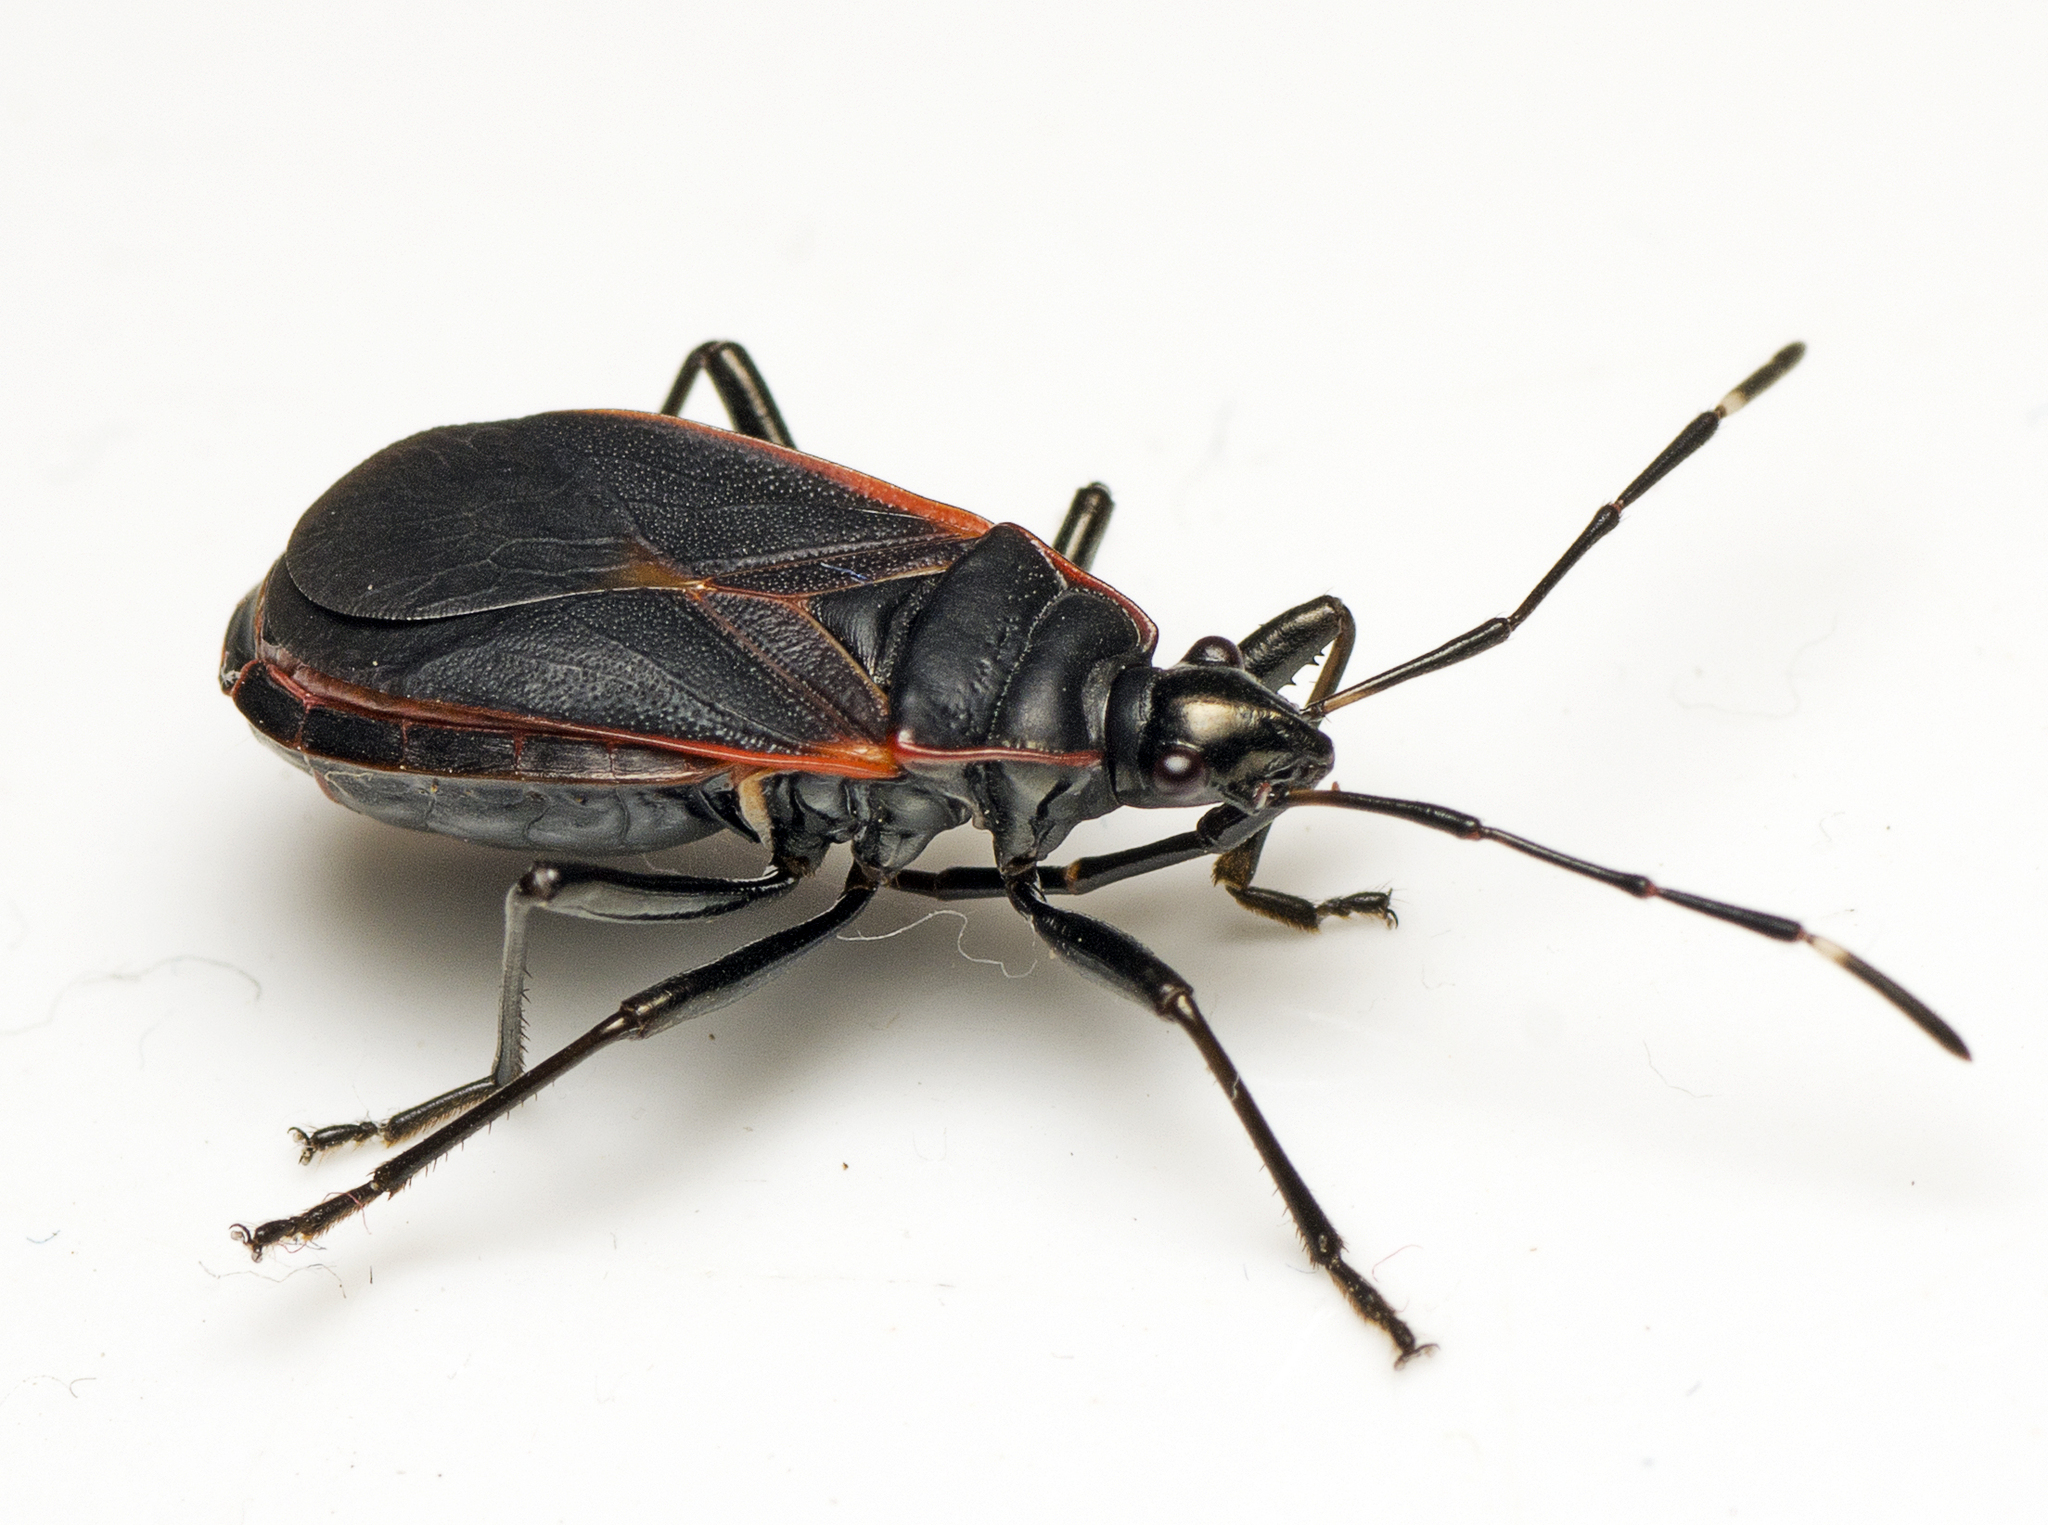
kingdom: Animalia
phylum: Arthropoda
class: Insecta
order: Hemiptera
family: Pyrrhocoridae
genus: Dindymus
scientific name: Dindymus
